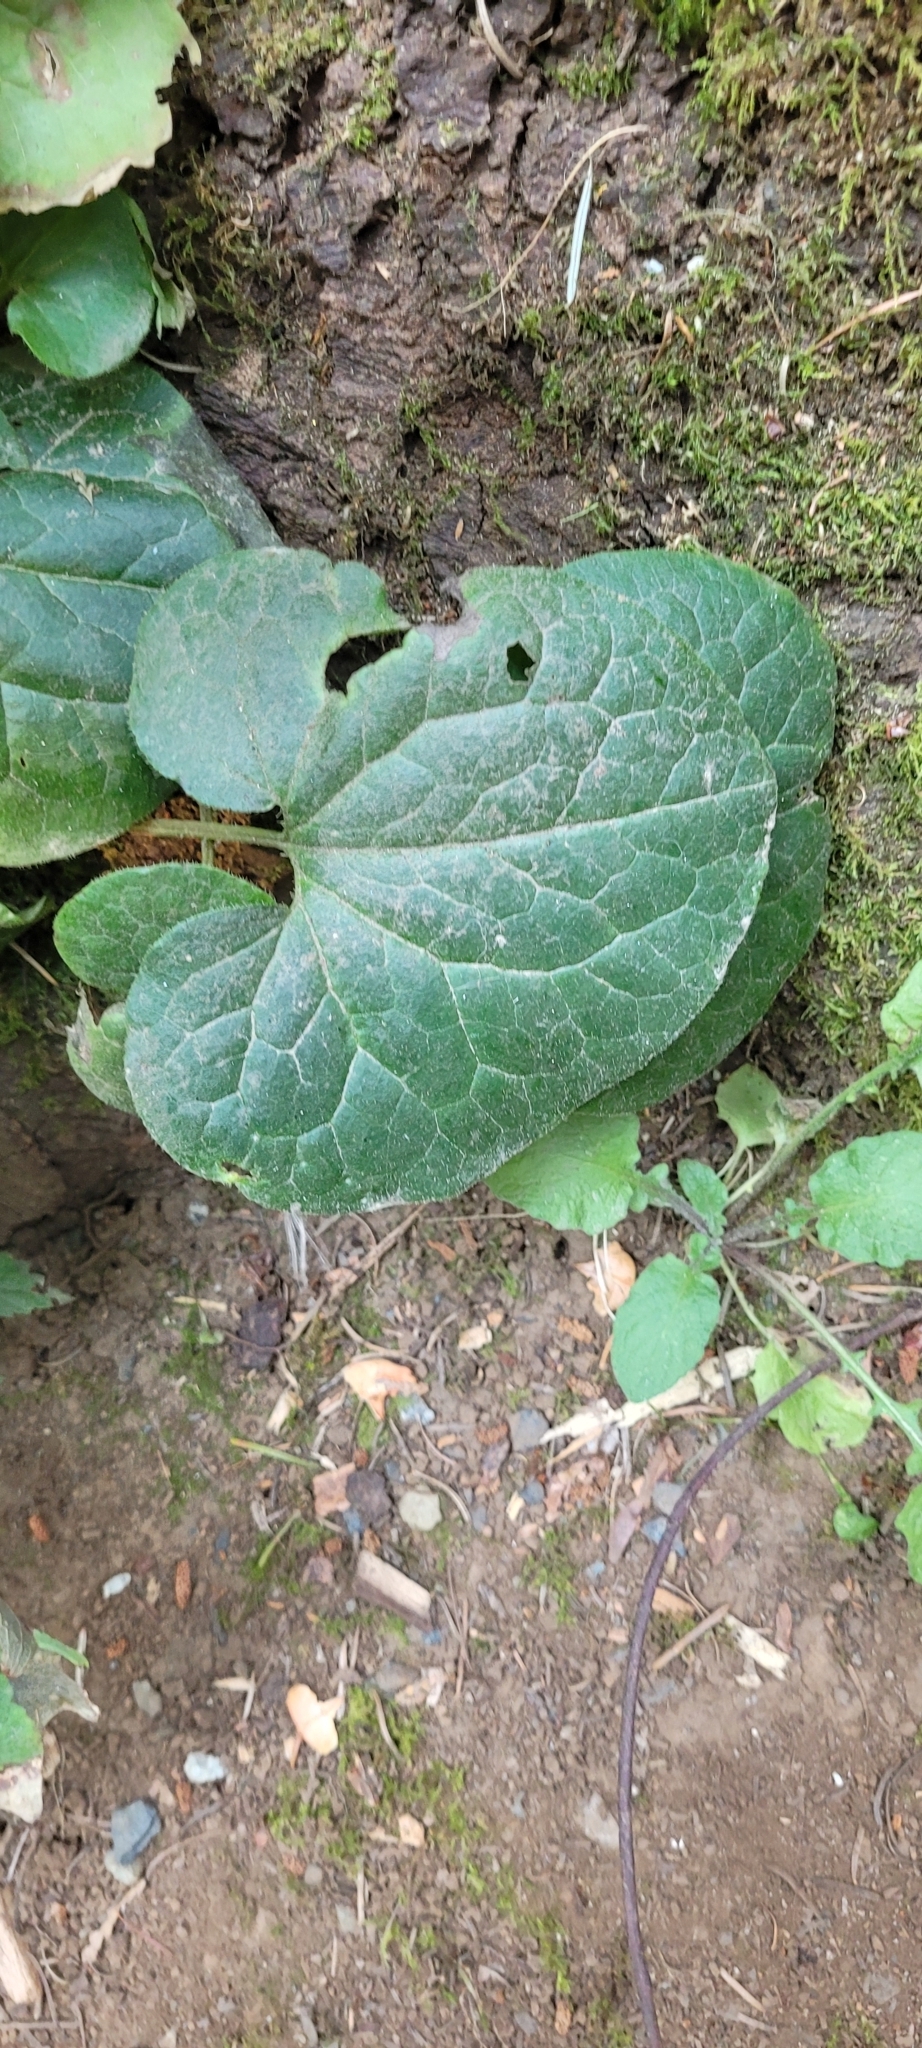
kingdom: Plantae
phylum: Tracheophyta
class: Magnoliopsida
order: Piperales
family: Aristolochiaceae
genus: Asarum
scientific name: Asarum caudatum
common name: Wild ginger
